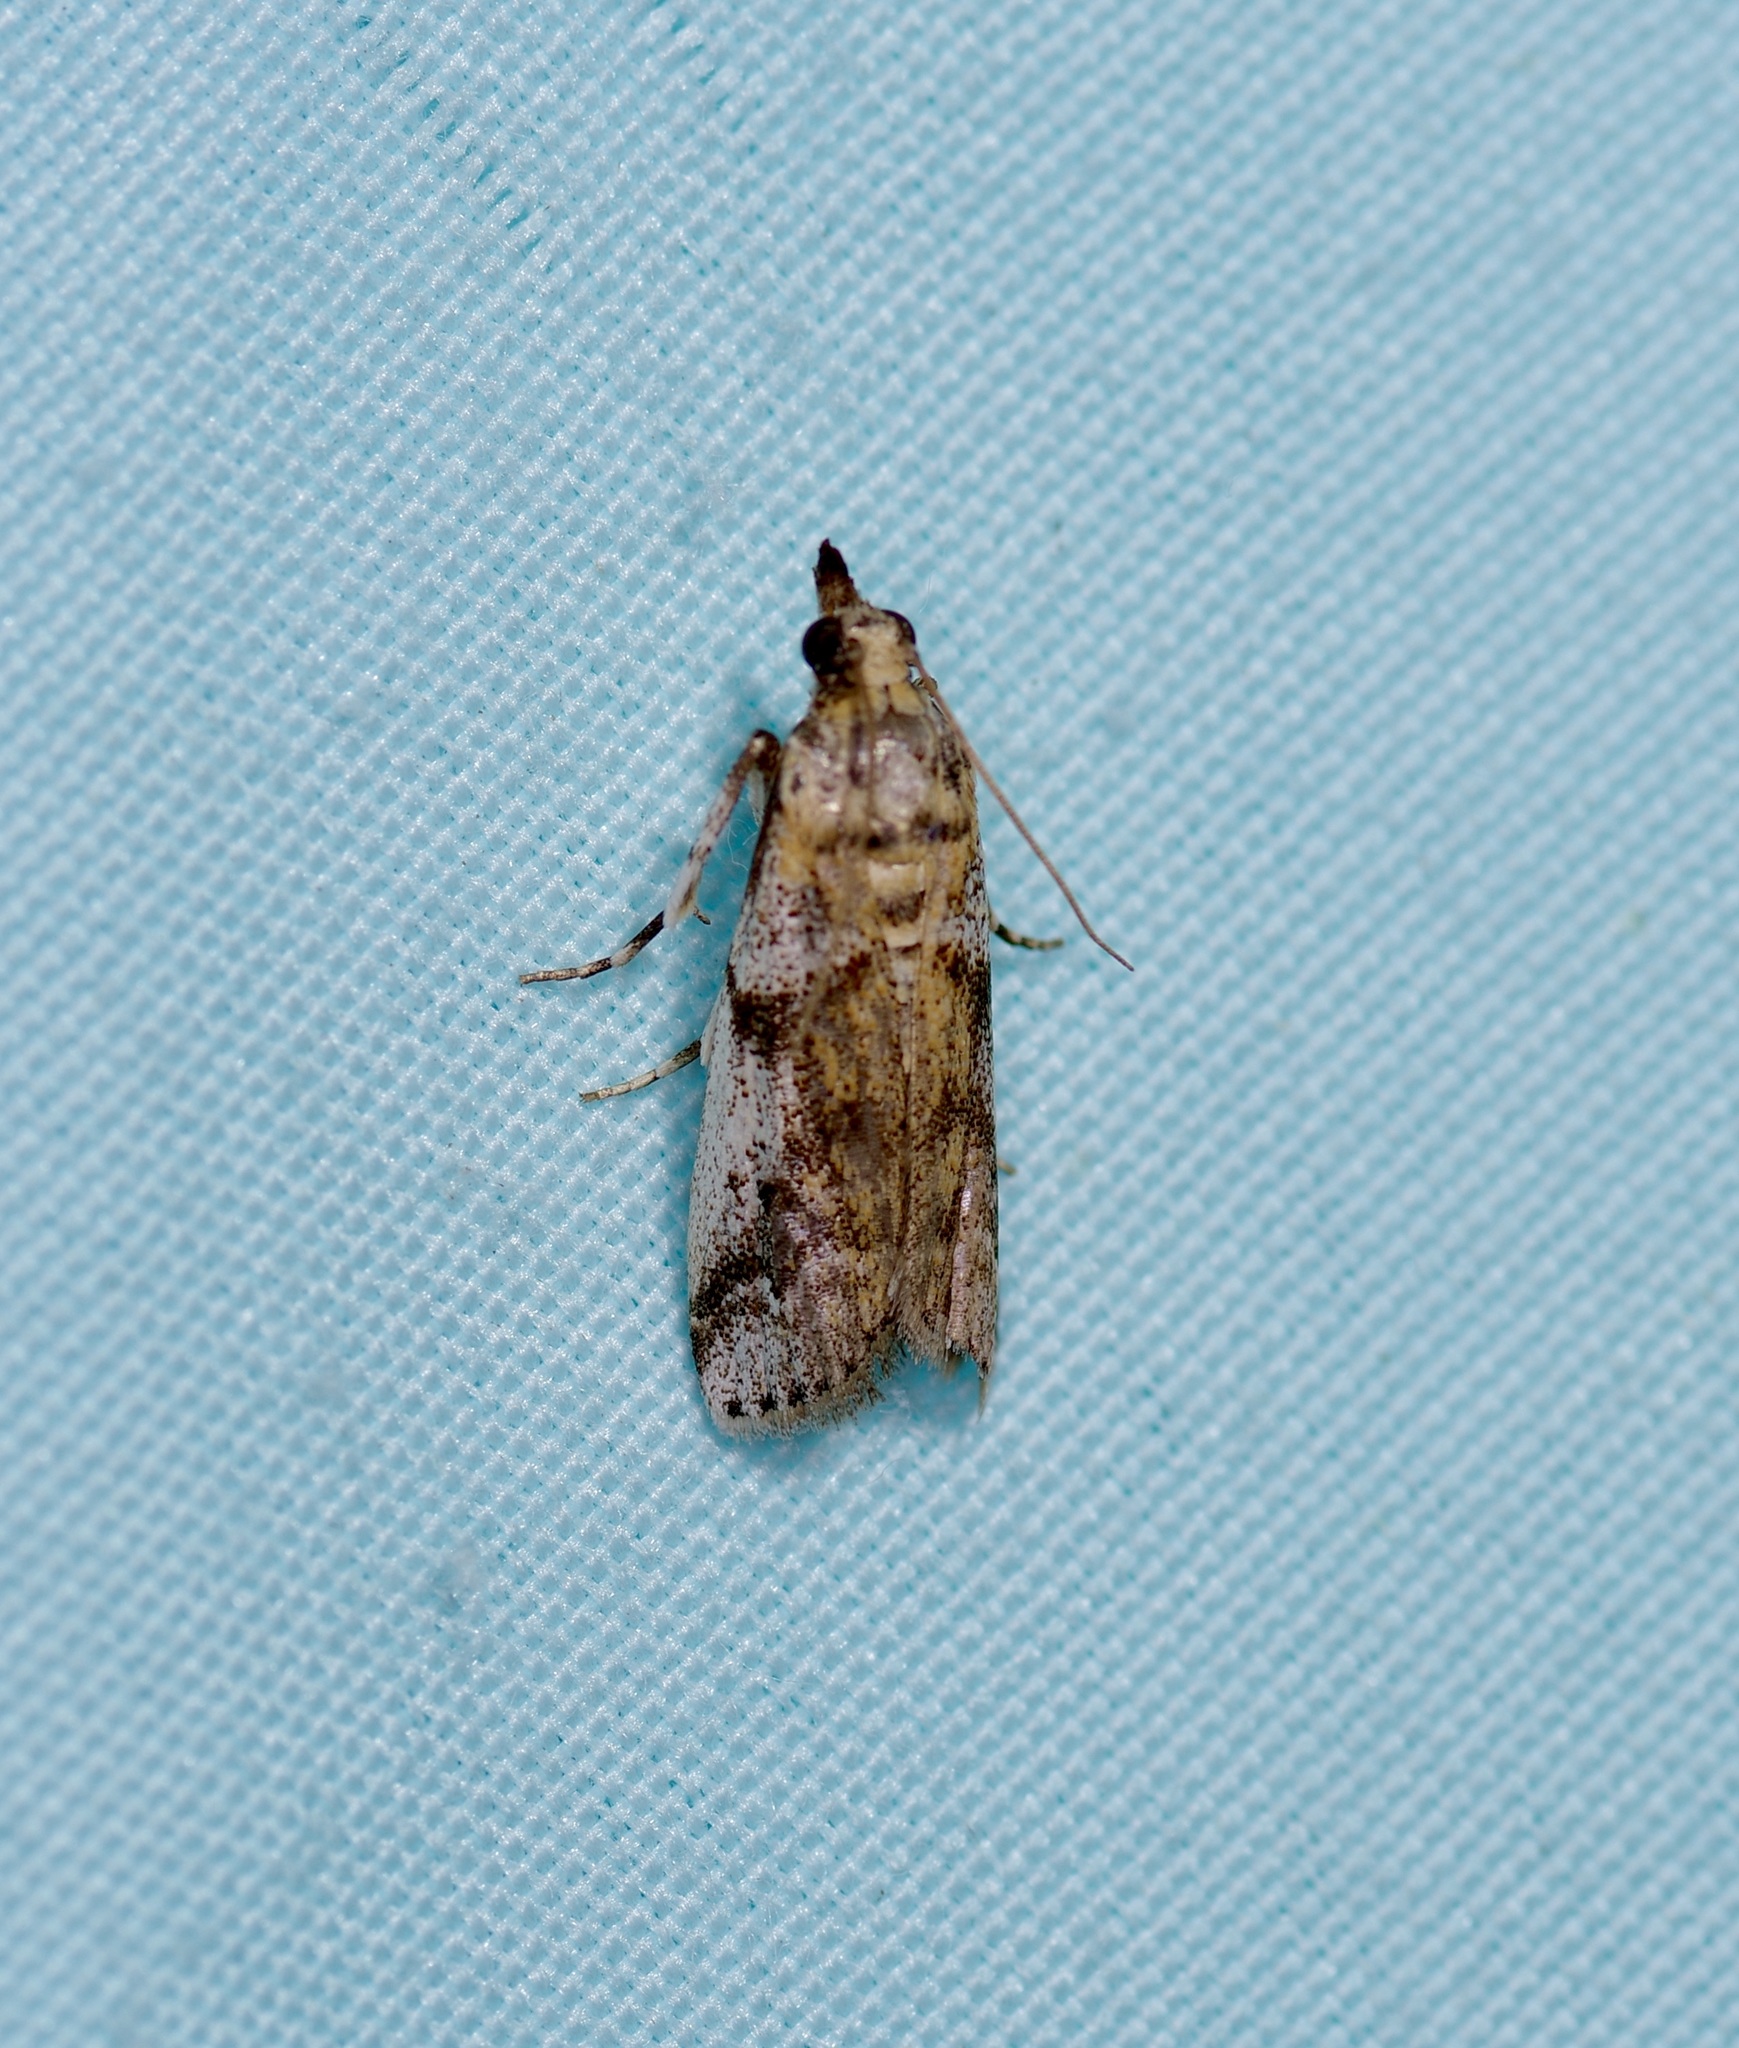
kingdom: Animalia
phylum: Arthropoda
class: Insecta
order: Lepidoptera
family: Pyralidae
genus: Laetilia
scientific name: Laetilia coccidivora
